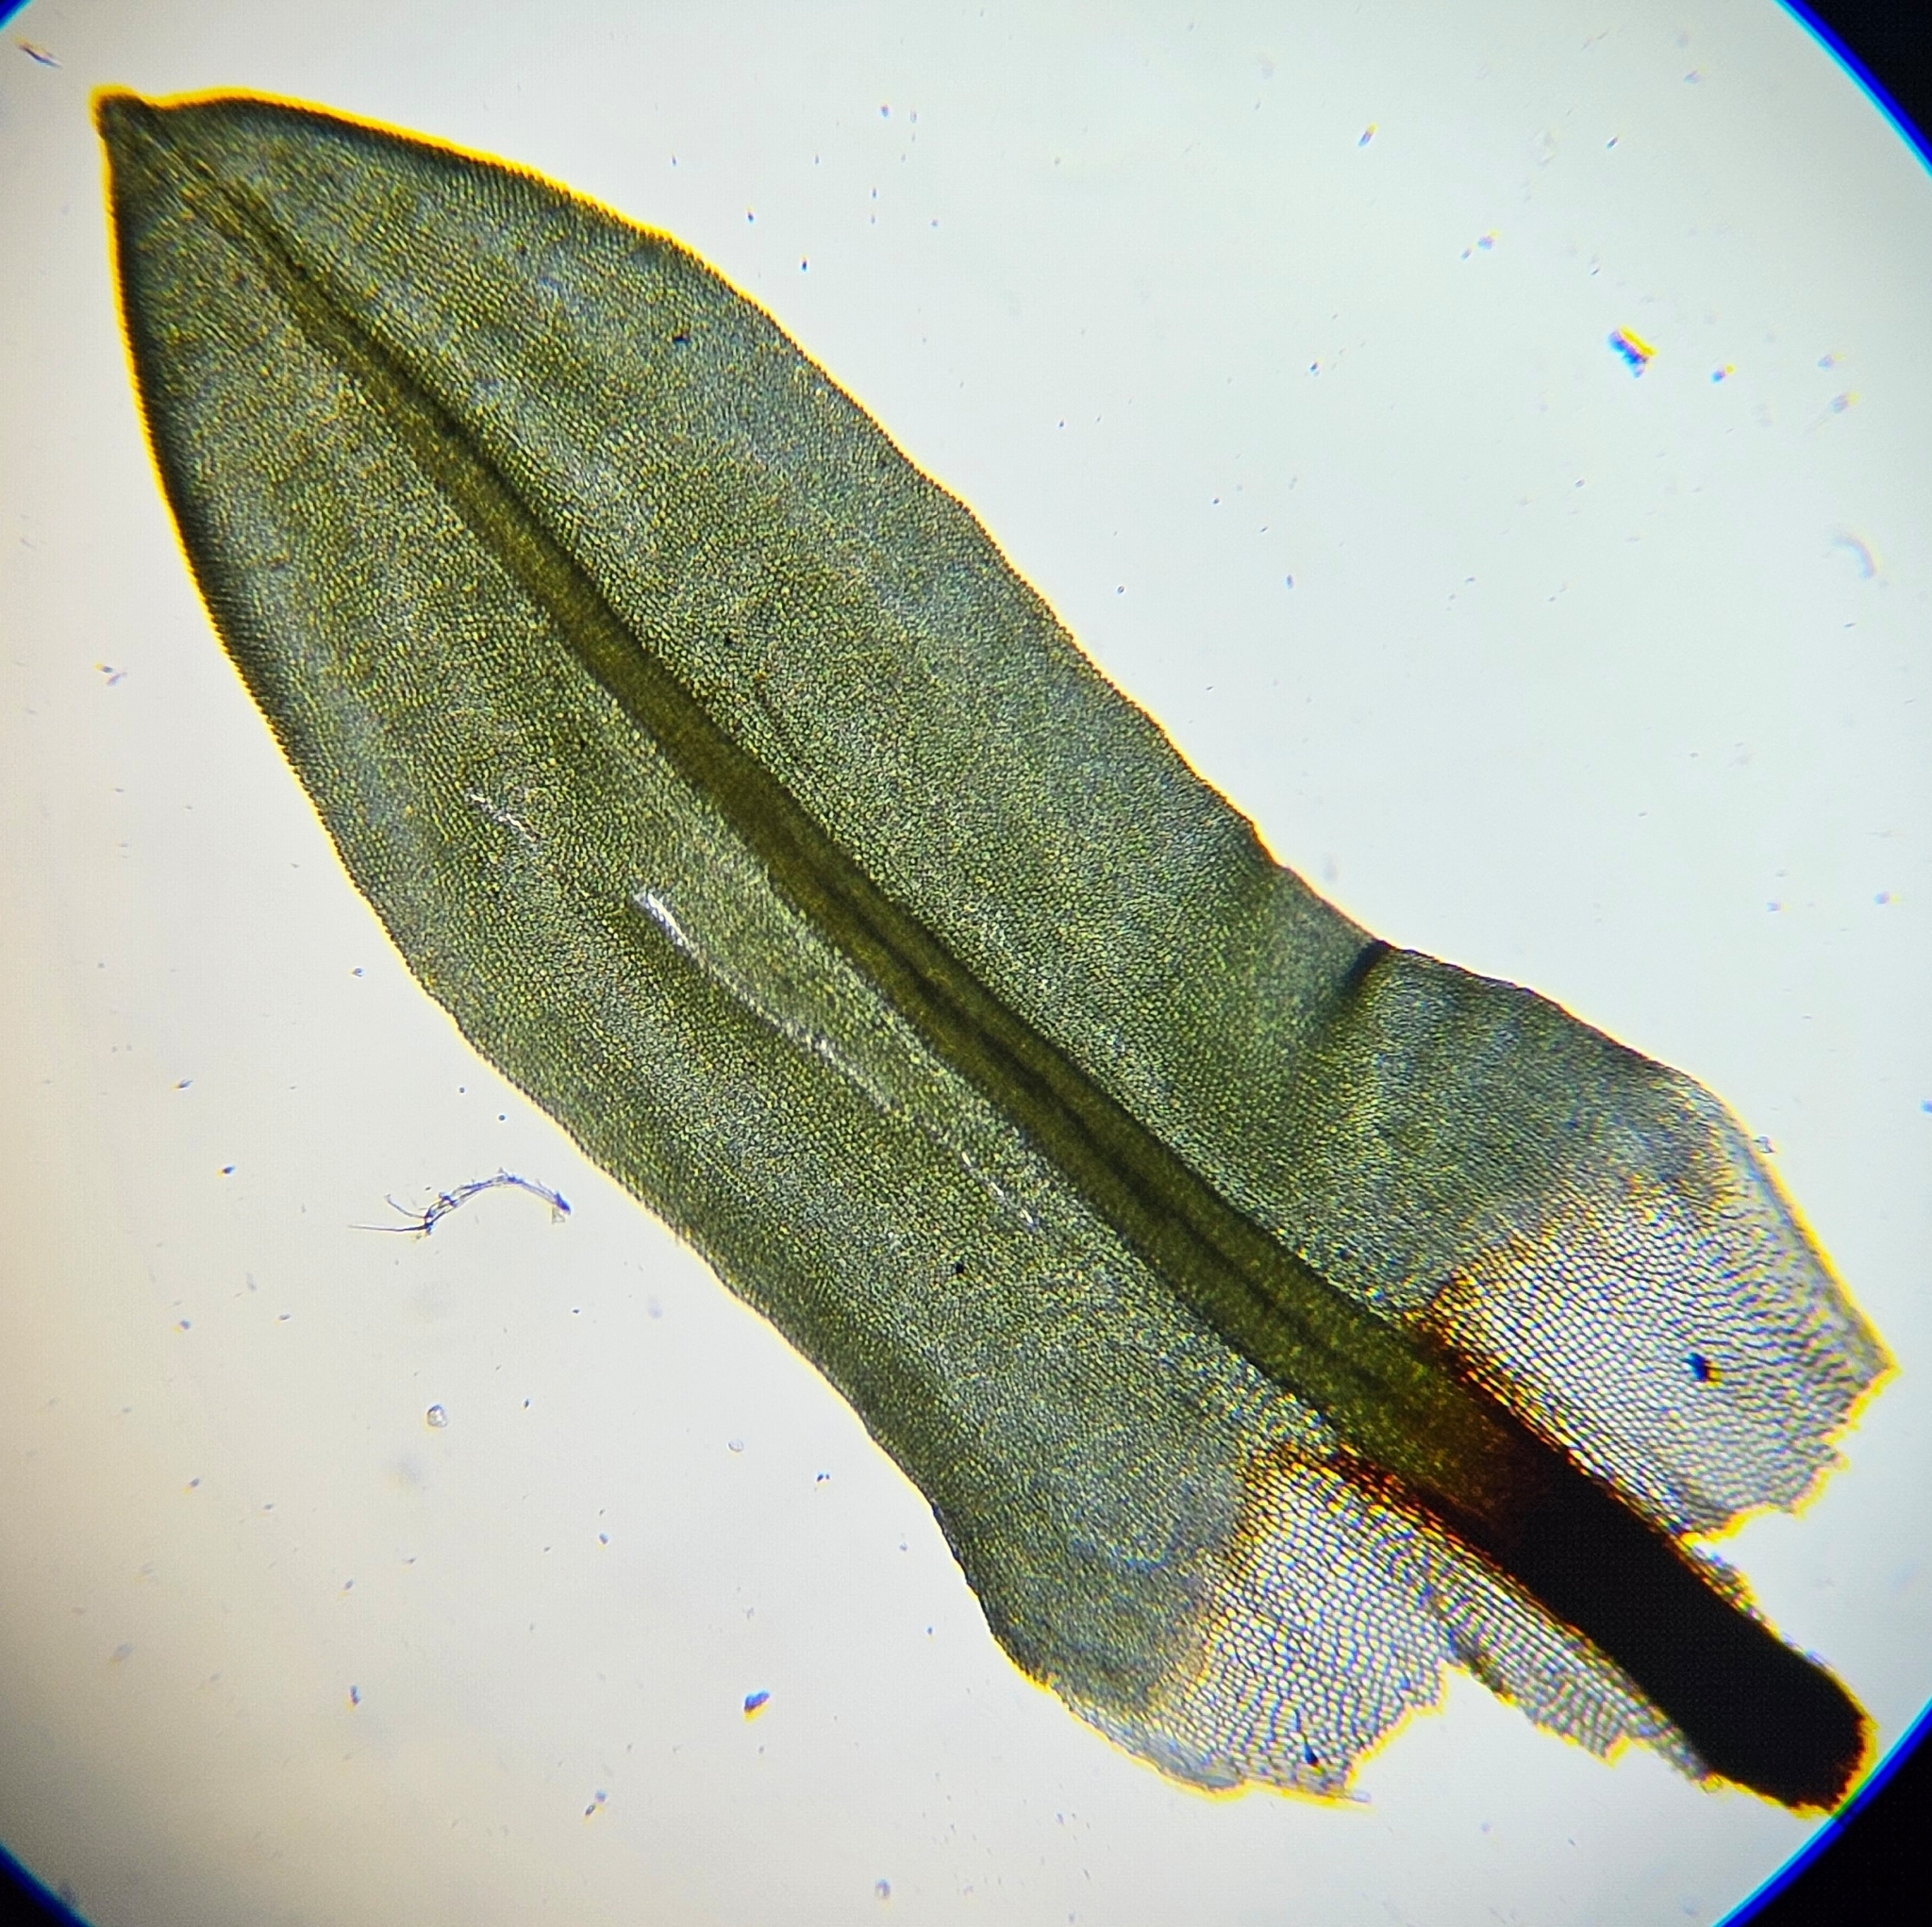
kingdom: Plantae
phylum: Bryophyta
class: Bryopsida
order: Encalyptales
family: Encalyptaceae
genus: Encalypta
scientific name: Encalypta streptocarpa
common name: Spiral extinguisher-moss
